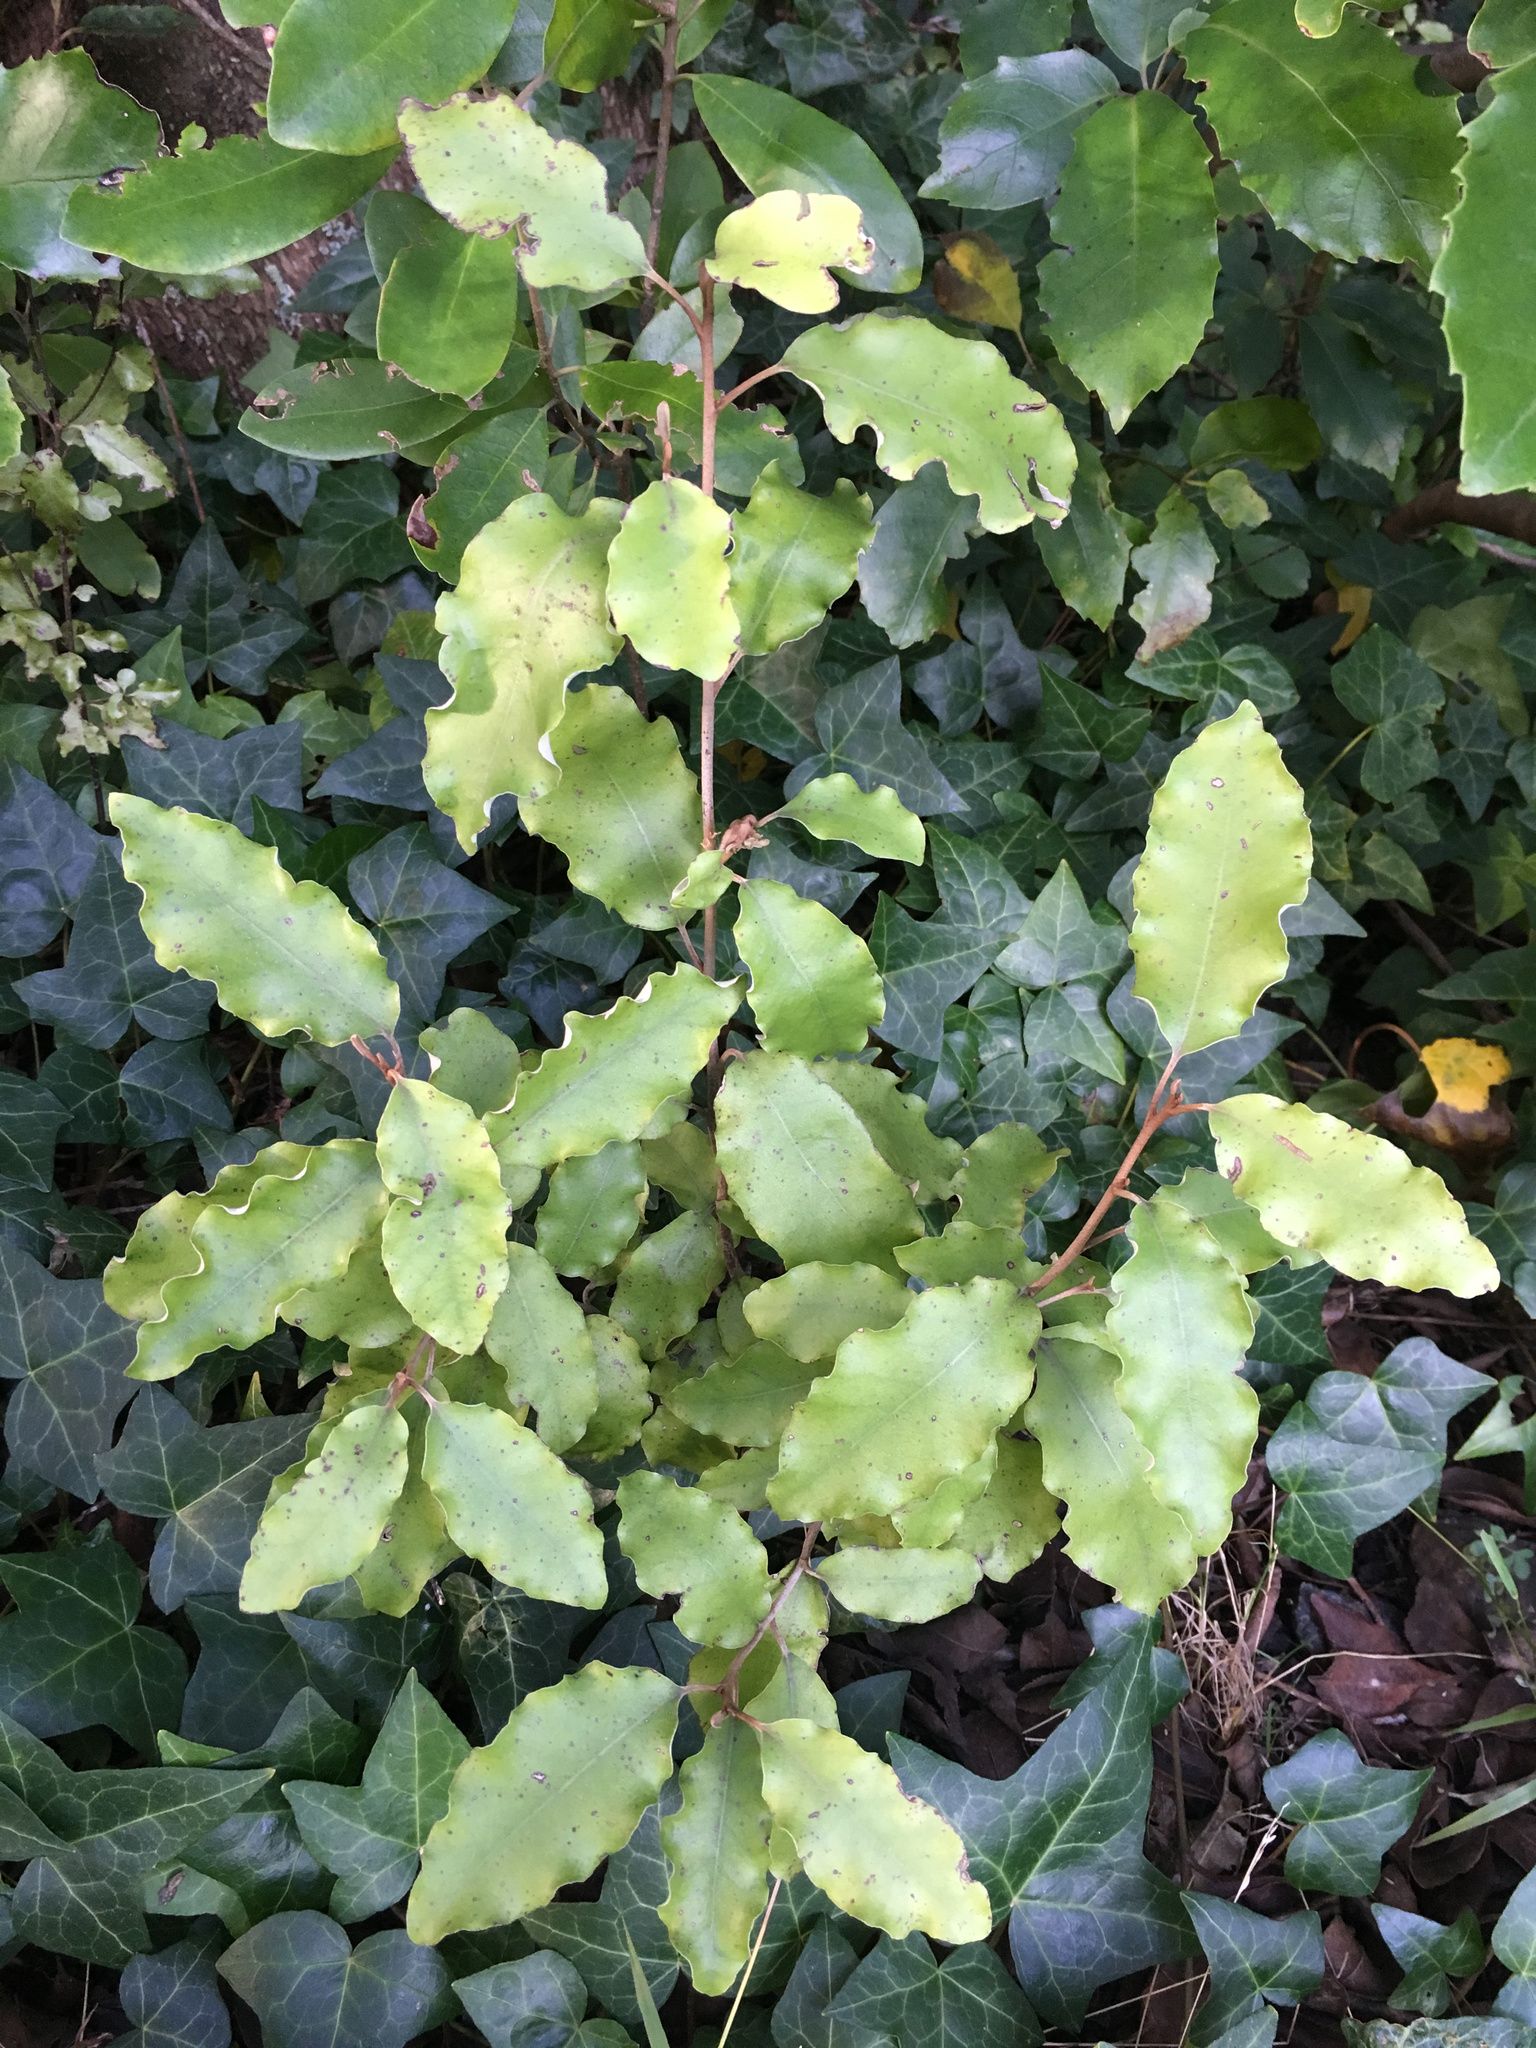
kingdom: Plantae
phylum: Tracheophyta
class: Magnoliopsida
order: Asterales
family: Asteraceae
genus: Olearia
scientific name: Olearia paniculata
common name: Akiraho
